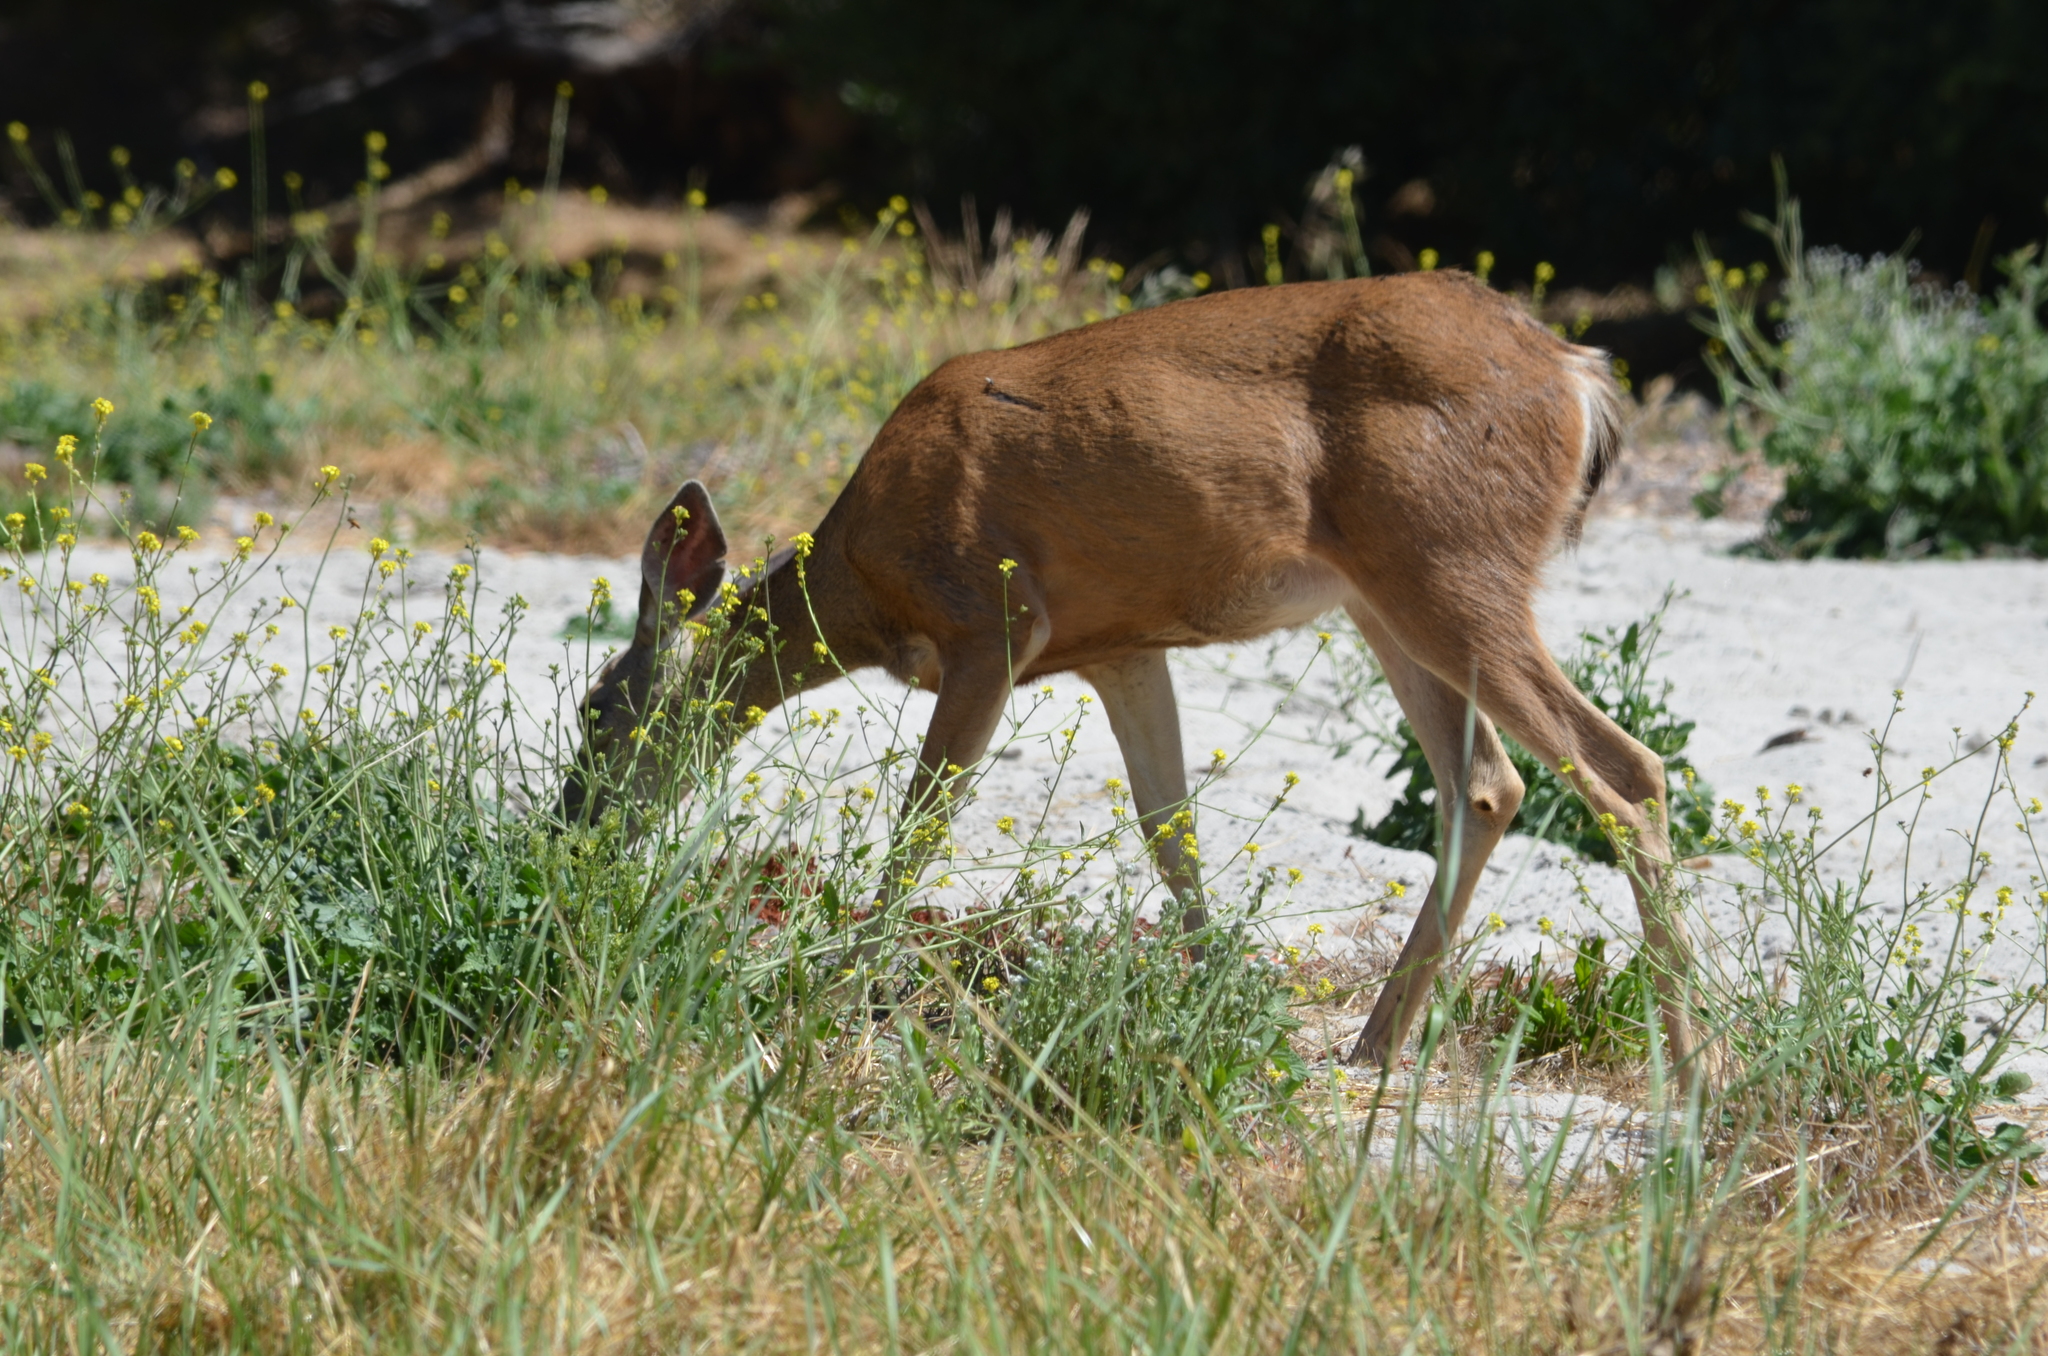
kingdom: Animalia
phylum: Chordata
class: Mammalia
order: Artiodactyla
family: Cervidae
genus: Odocoileus
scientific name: Odocoileus hemionus
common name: Mule deer
